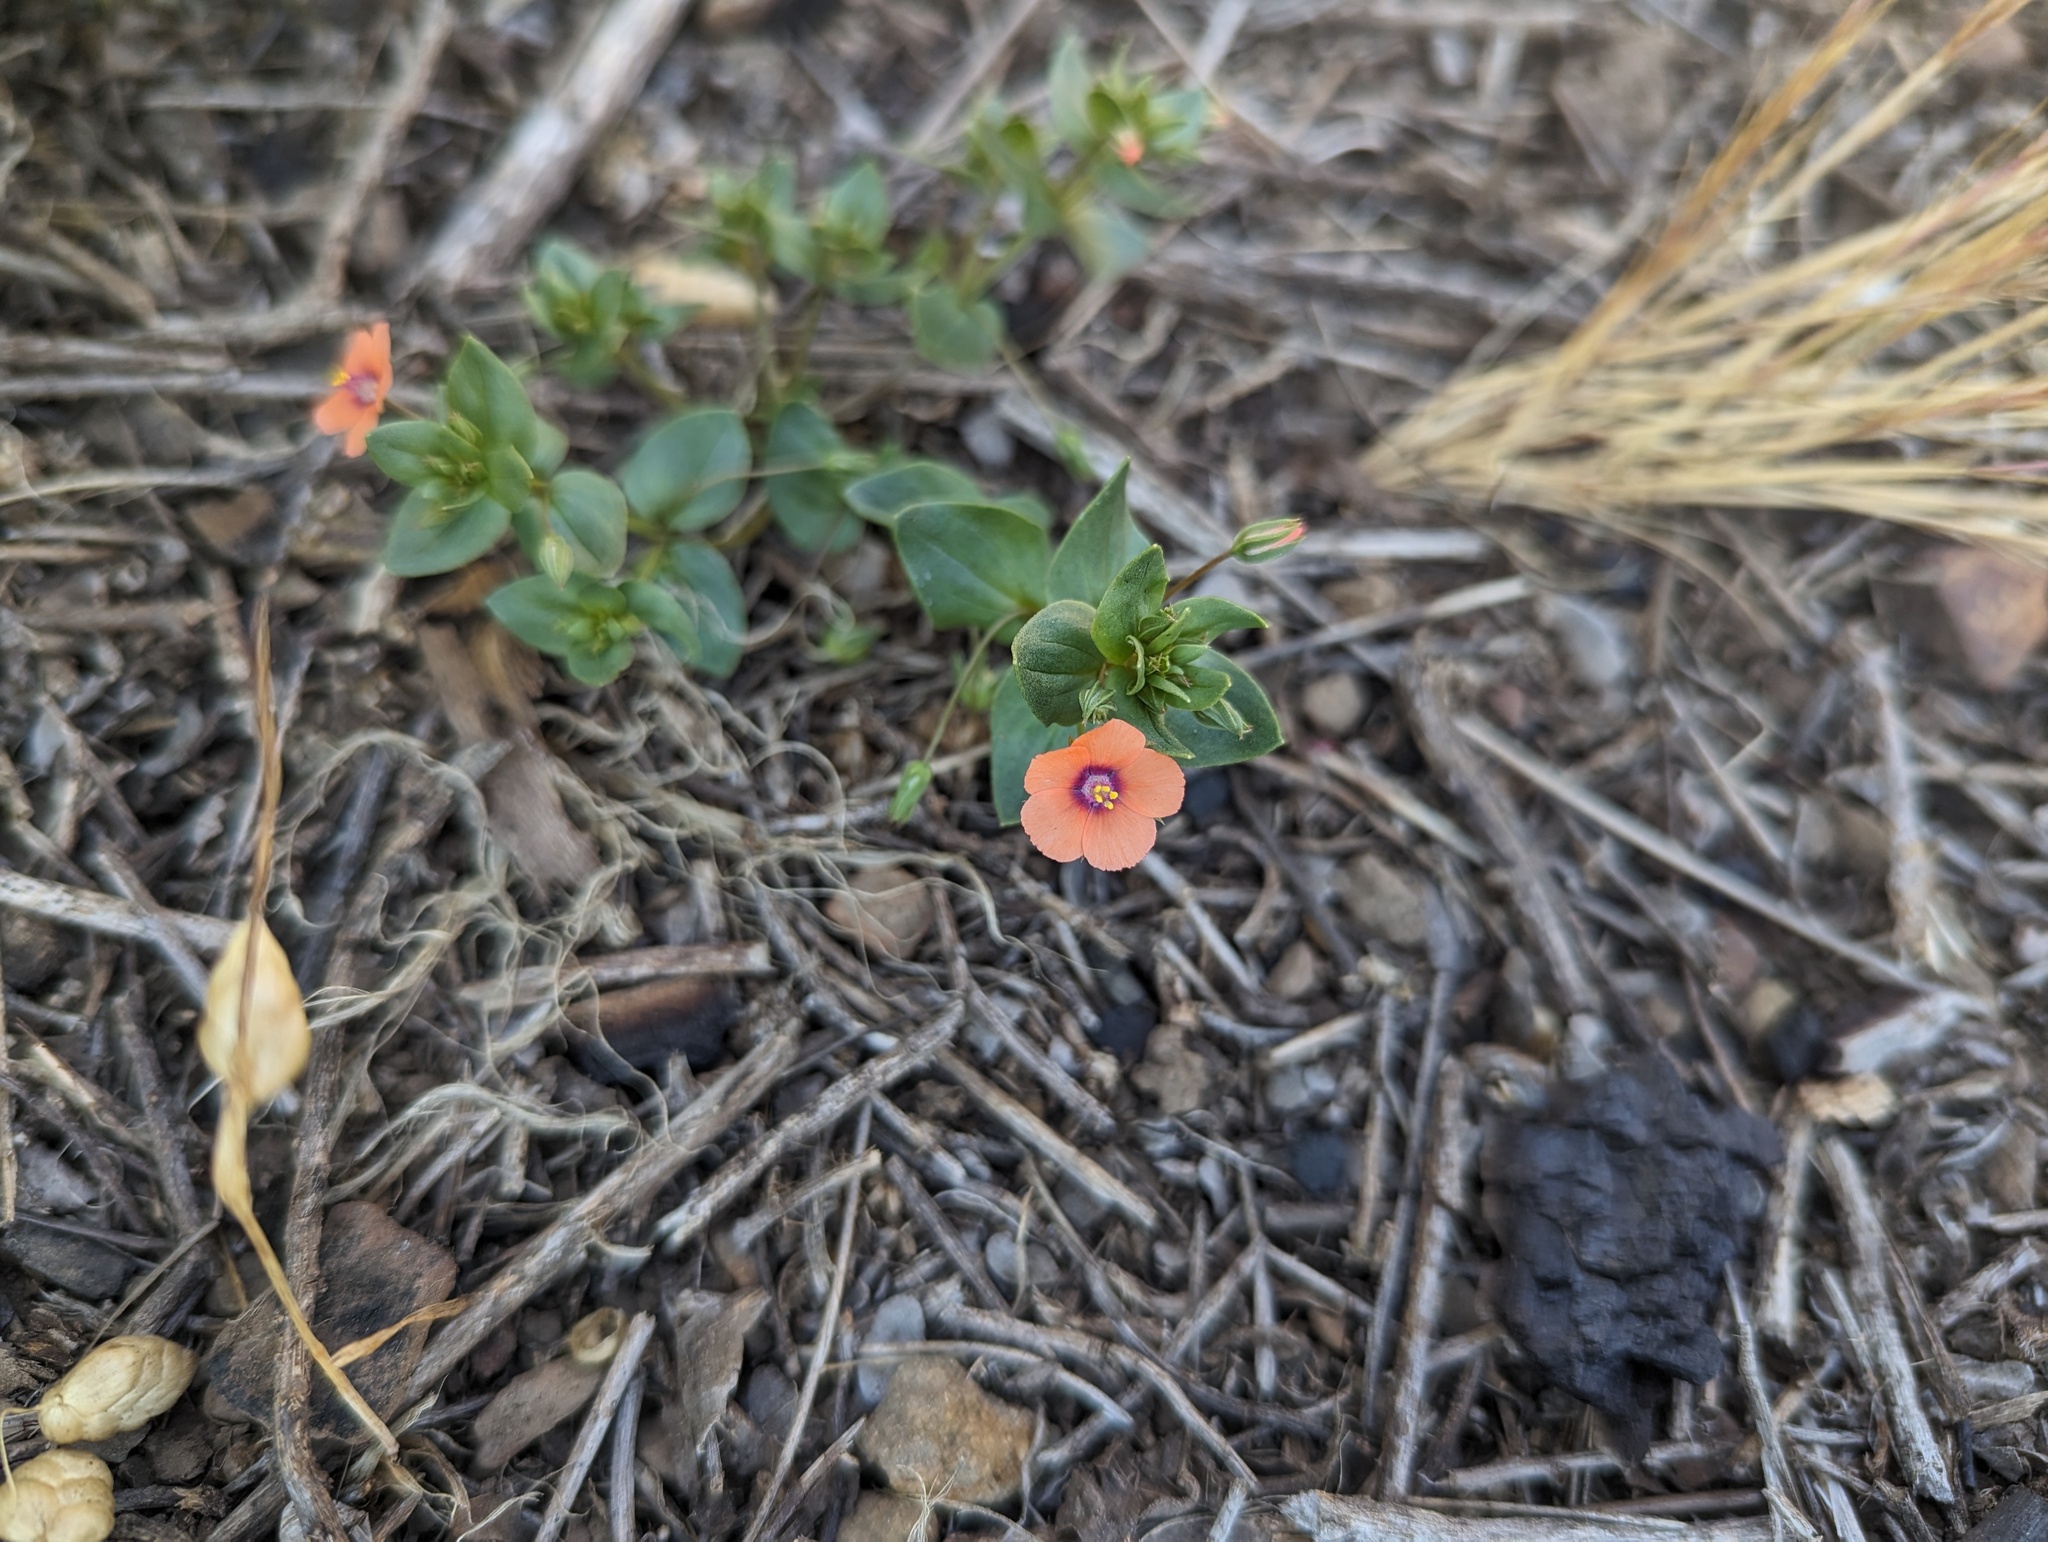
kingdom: Plantae
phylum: Tracheophyta
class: Magnoliopsida
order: Ericales
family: Primulaceae
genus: Lysimachia
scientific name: Lysimachia arvensis
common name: Scarlet pimpernel
